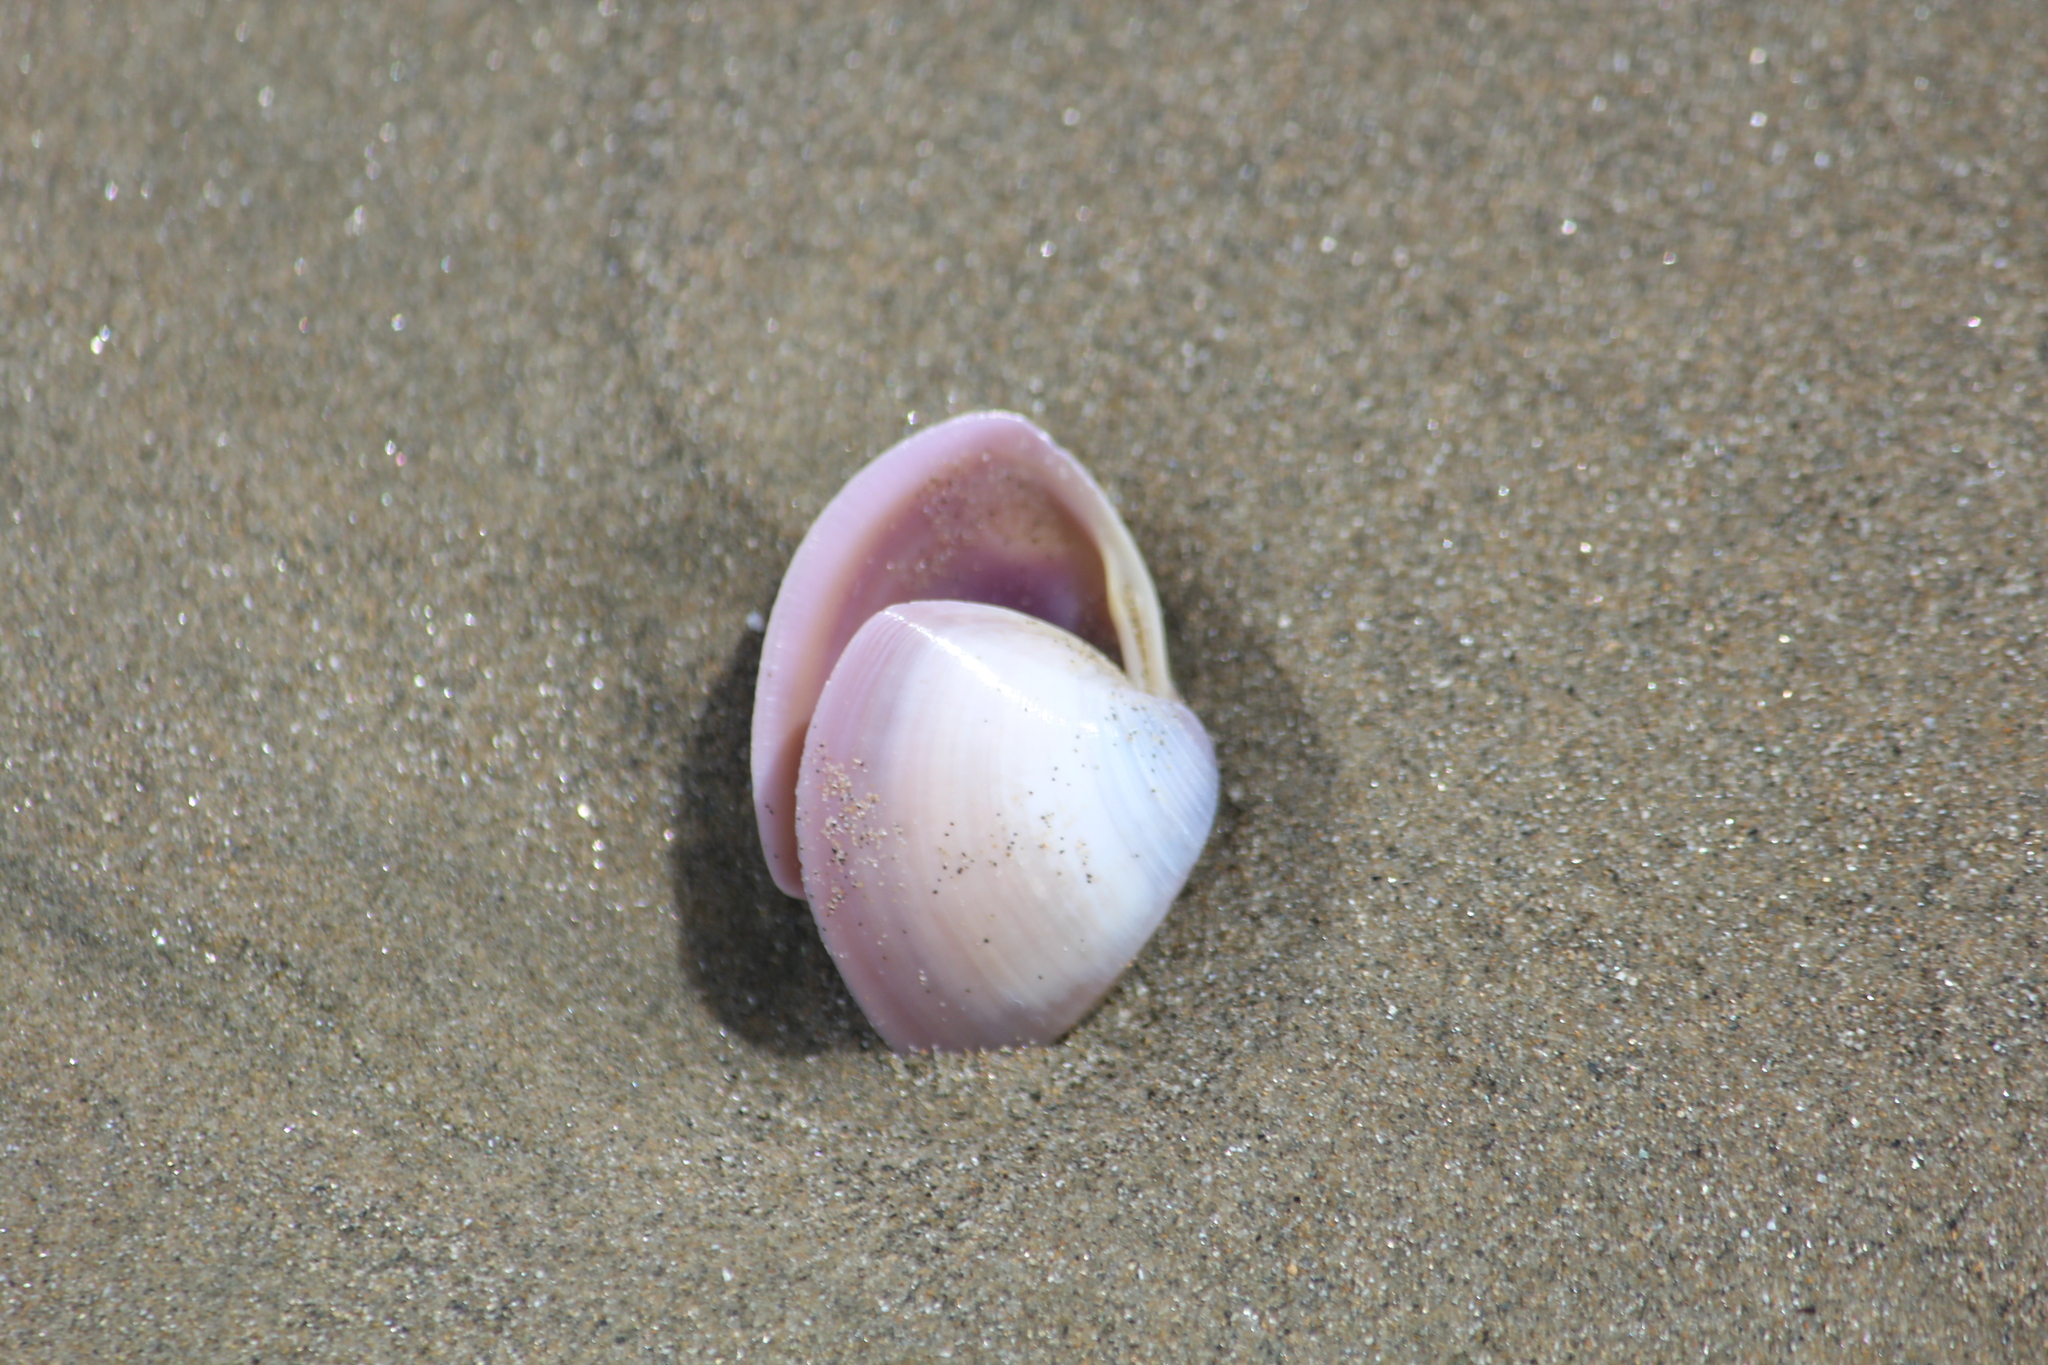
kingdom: Animalia
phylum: Mollusca
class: Bivalvia
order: Venerida
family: Mactridae
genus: Crassula
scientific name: Crassula aequilatera
